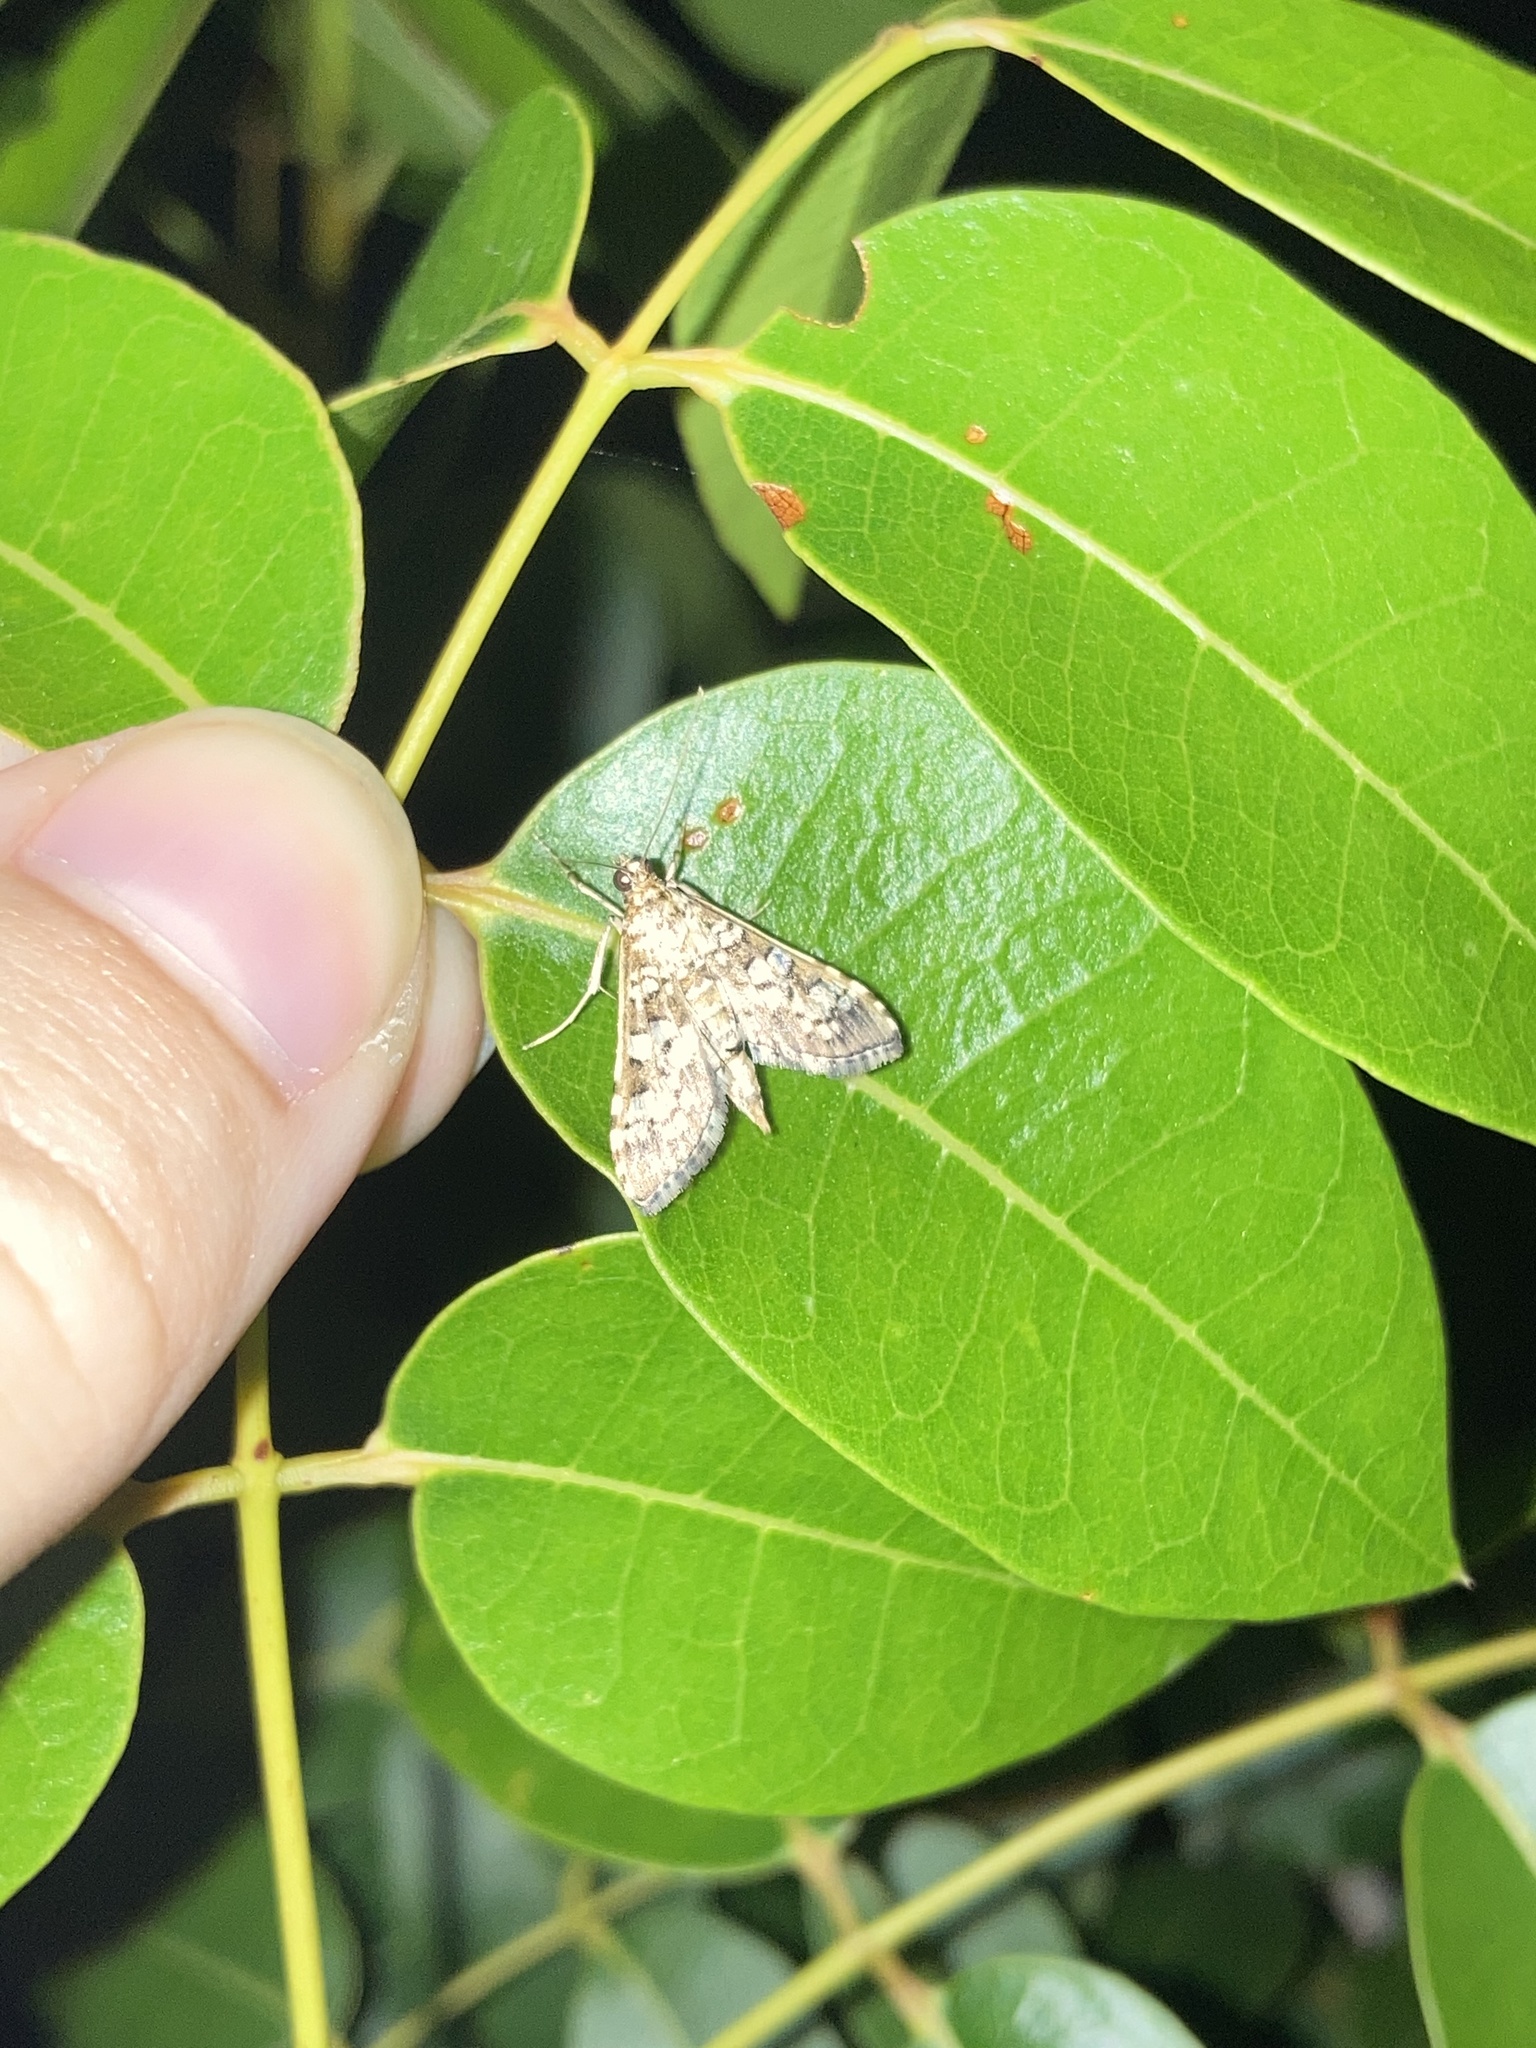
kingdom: Animalia
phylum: Arthropoda
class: Insecta
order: Lepidoptera
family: Crambidae
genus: Samea
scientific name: Samea ecclesialis
